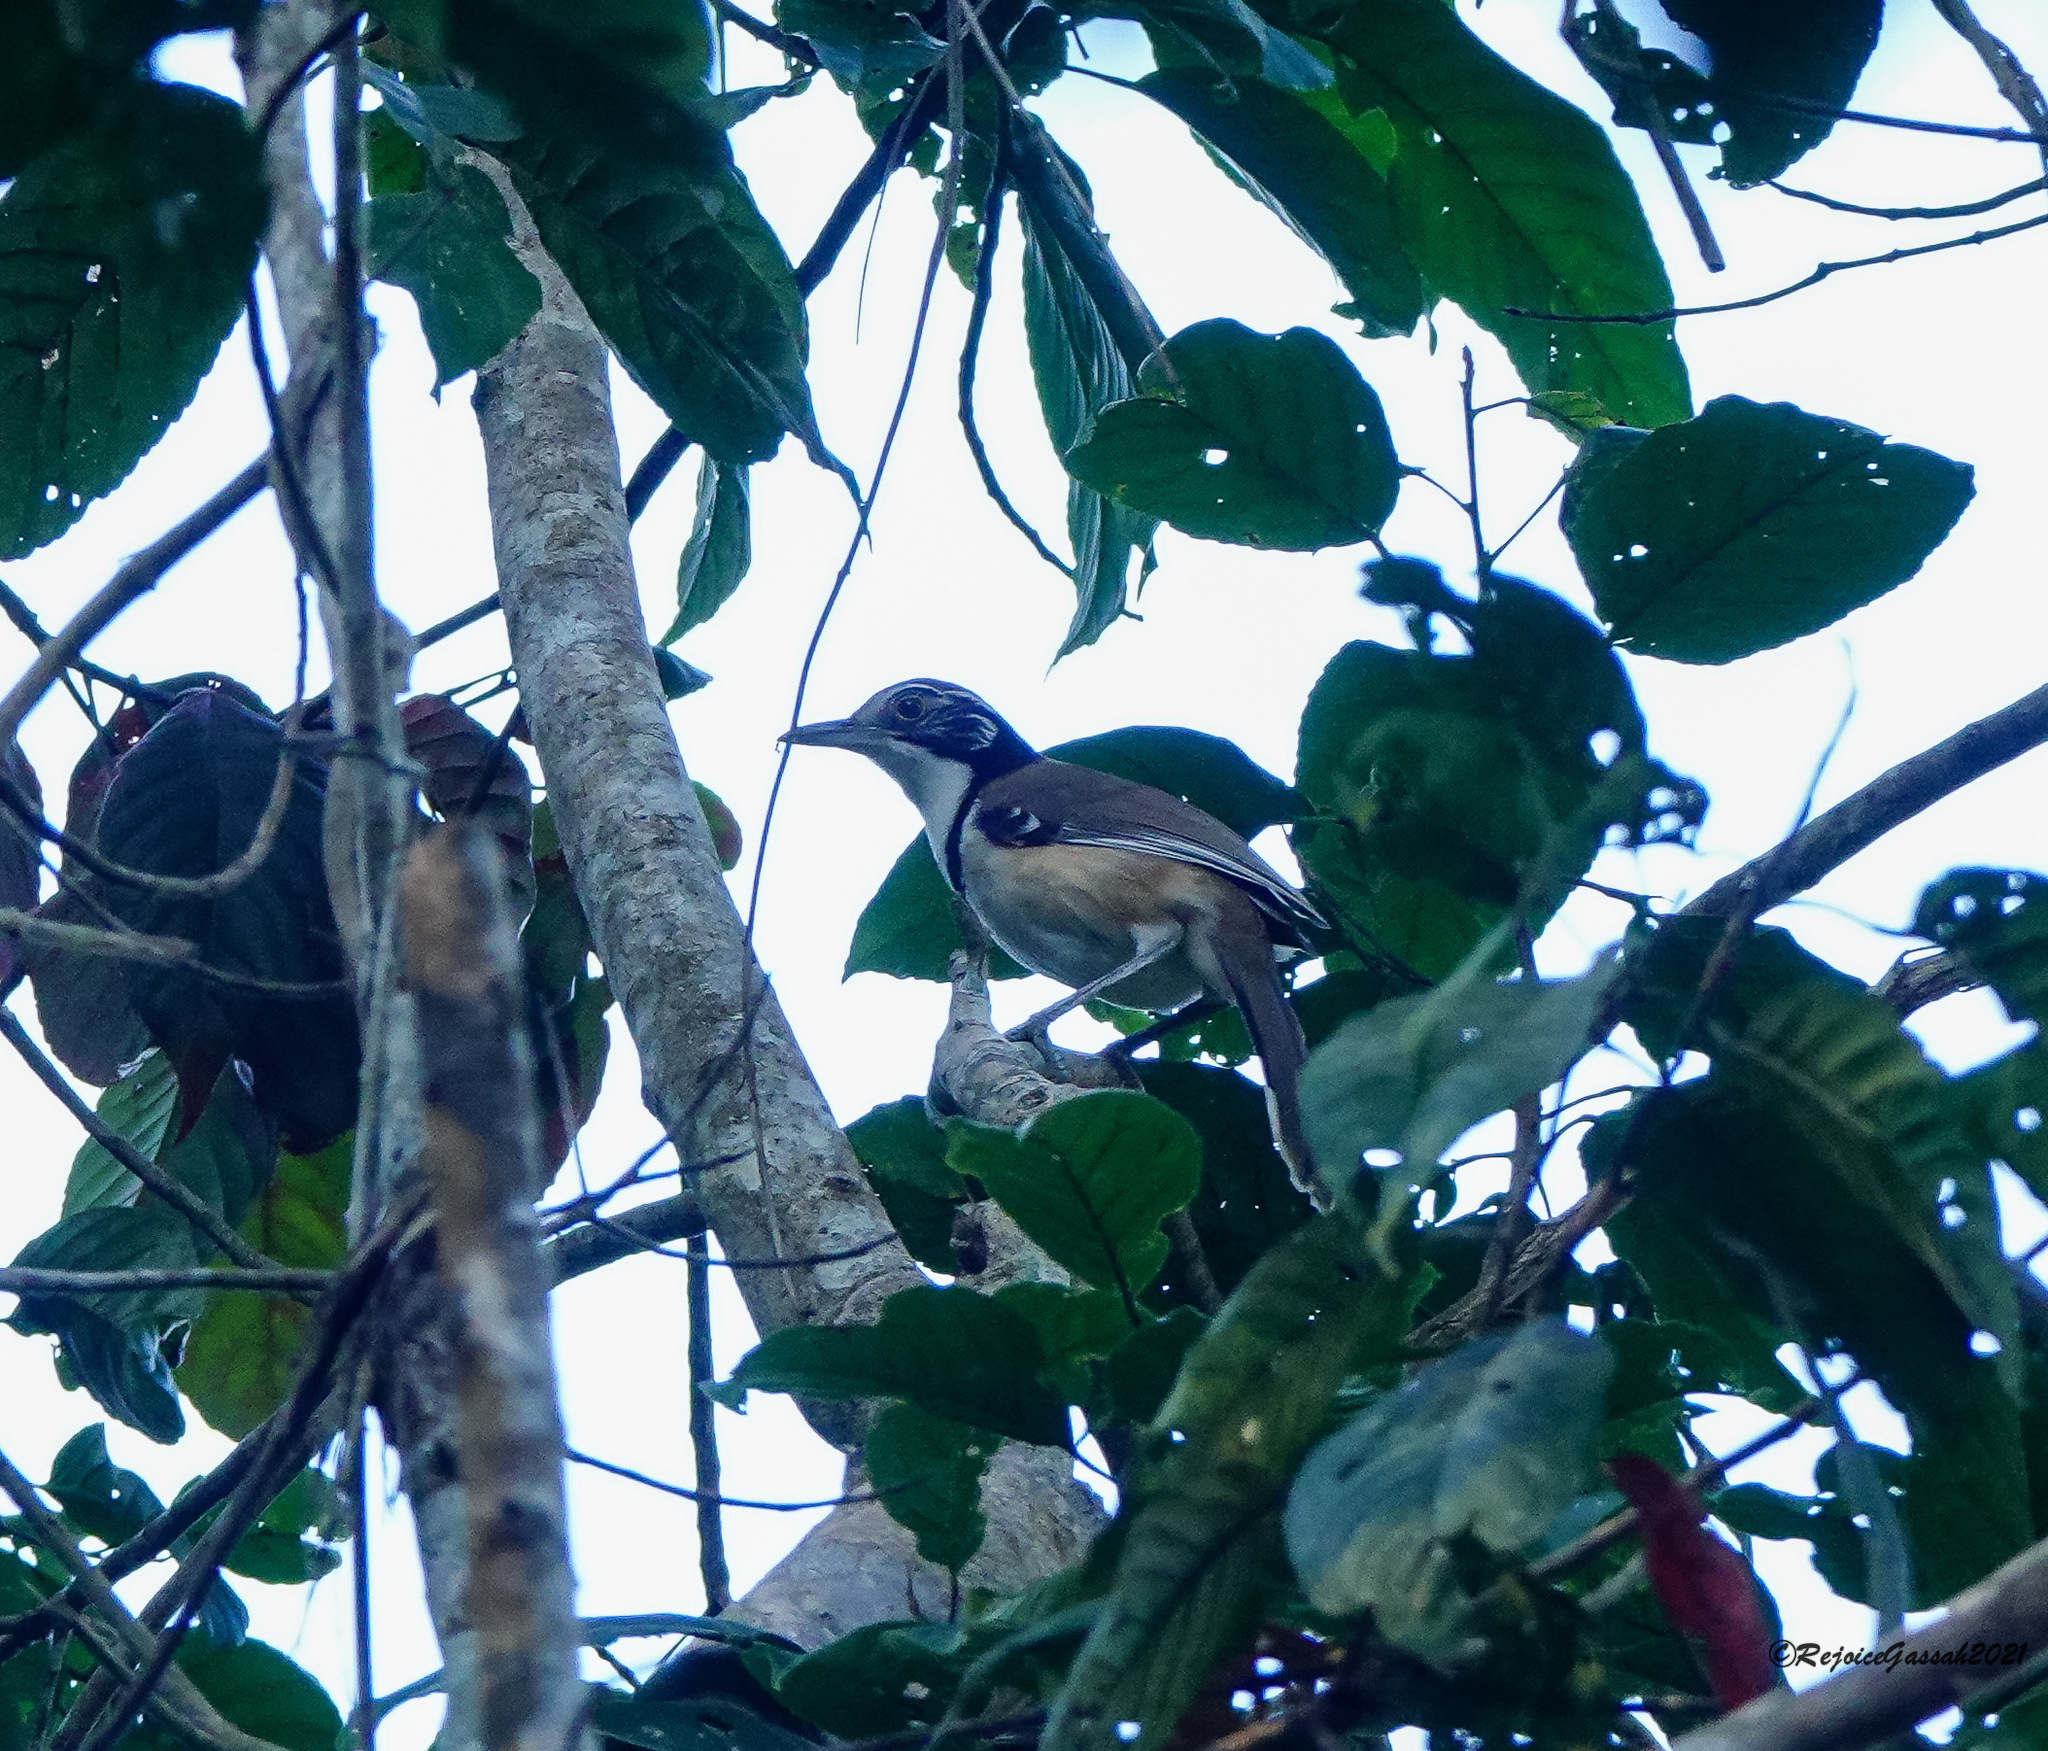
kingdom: Animalia
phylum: Chordata
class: Aves
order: Passeriformes
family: Leiothrichidae
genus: Garrulax
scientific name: Garrulax pectoralis
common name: Greater necklaced laughingthrush
